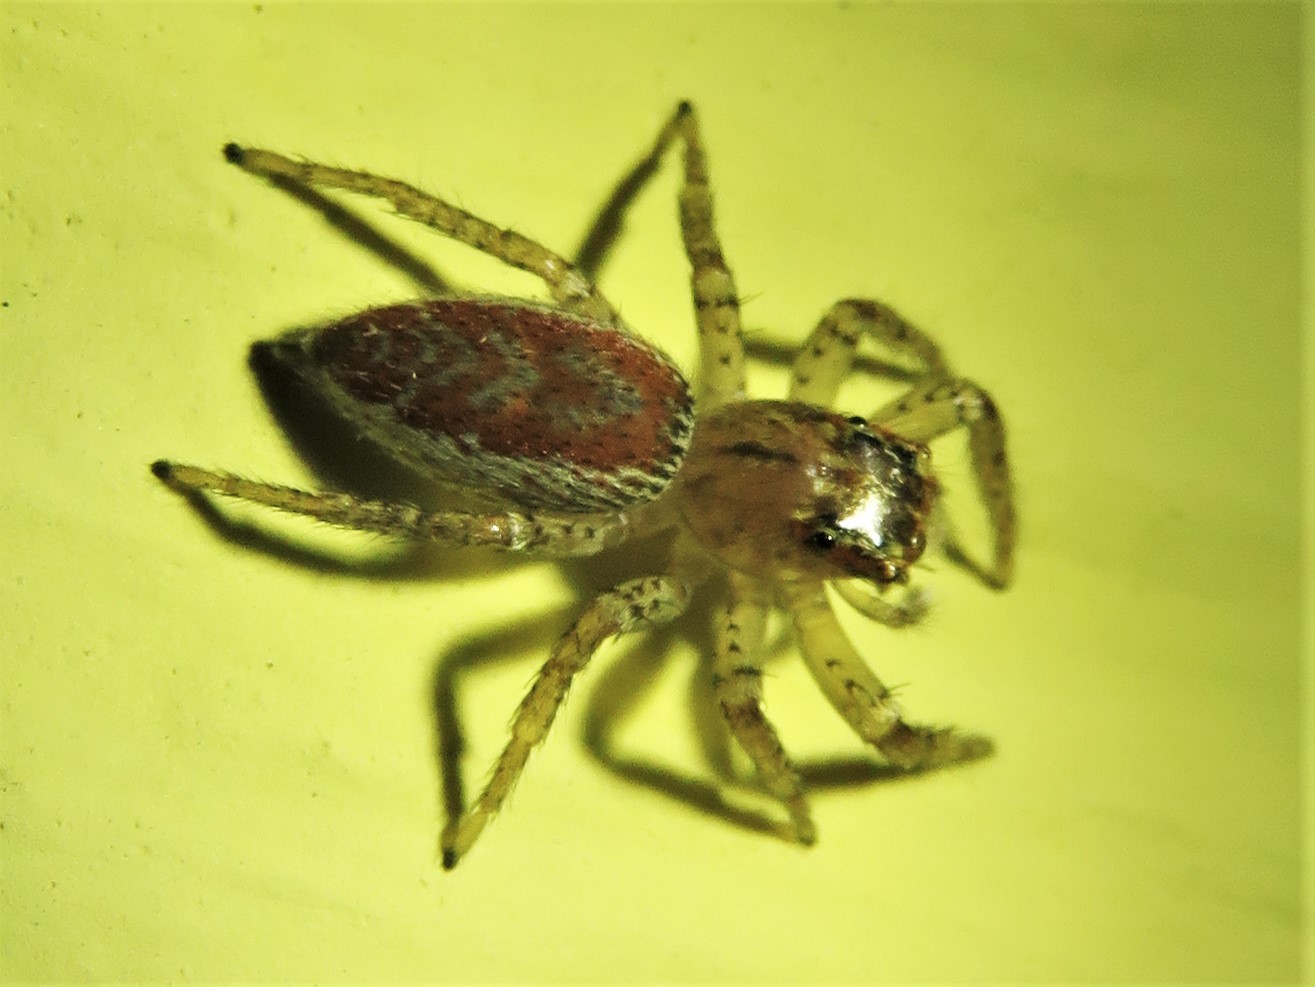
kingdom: Animalia
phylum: Arthropoda
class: Arachnida
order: Araneae
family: Salticidae
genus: Maevia
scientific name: Maevia inclemens
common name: Dimorphic jumper
